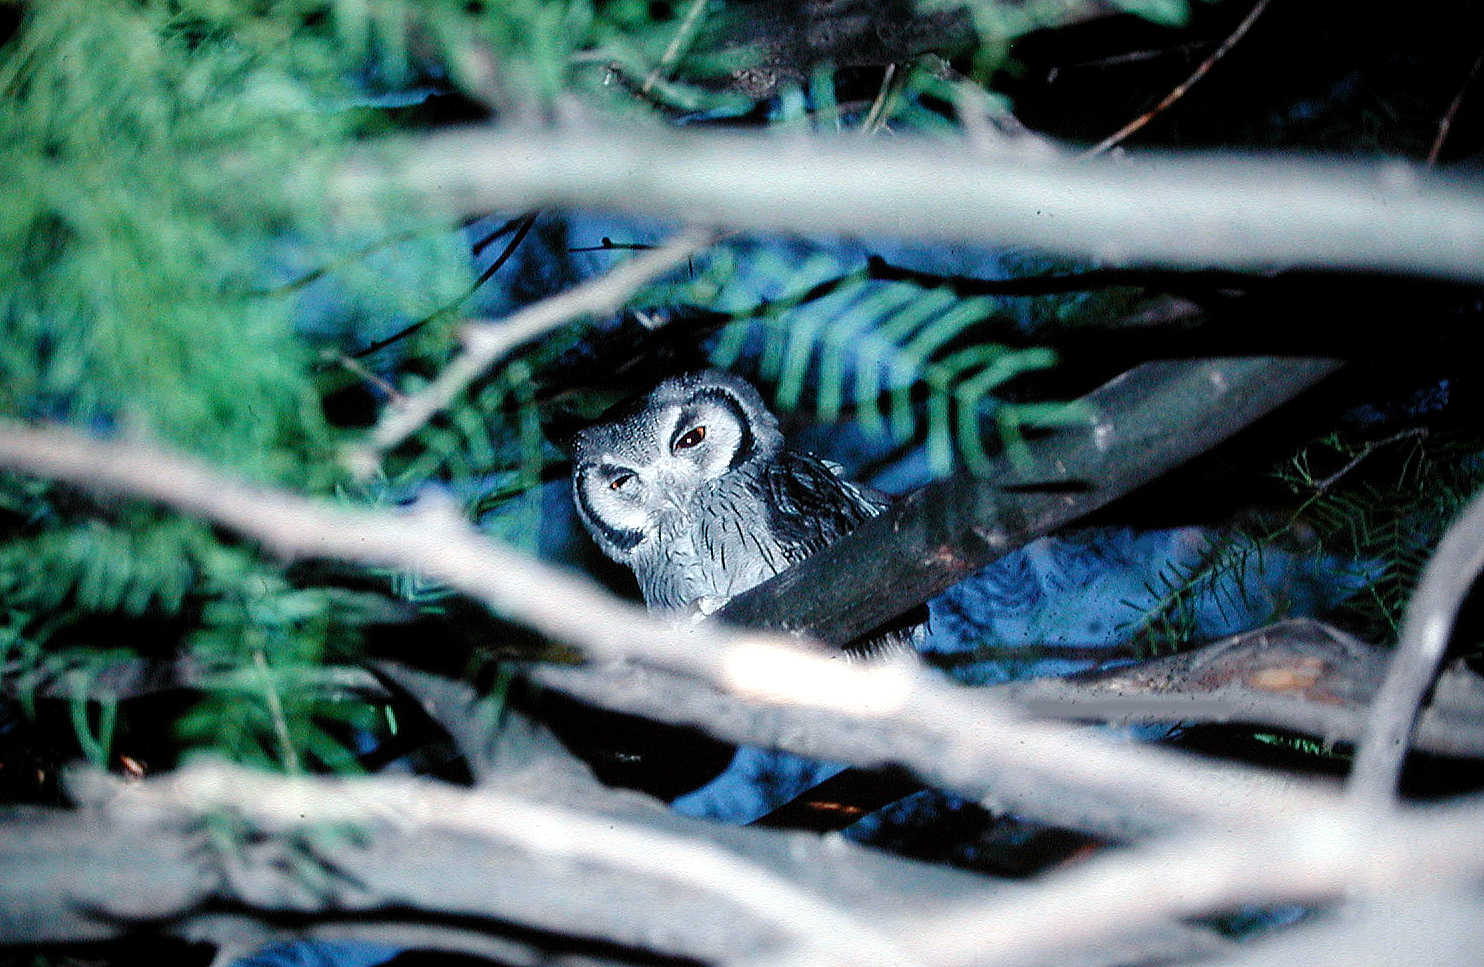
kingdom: Animalia
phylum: Chordata
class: Aves
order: Strigiformes
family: Strigidae
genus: Ptilopsis
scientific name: Ptilopsis granti
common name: Southern white-faced owl
